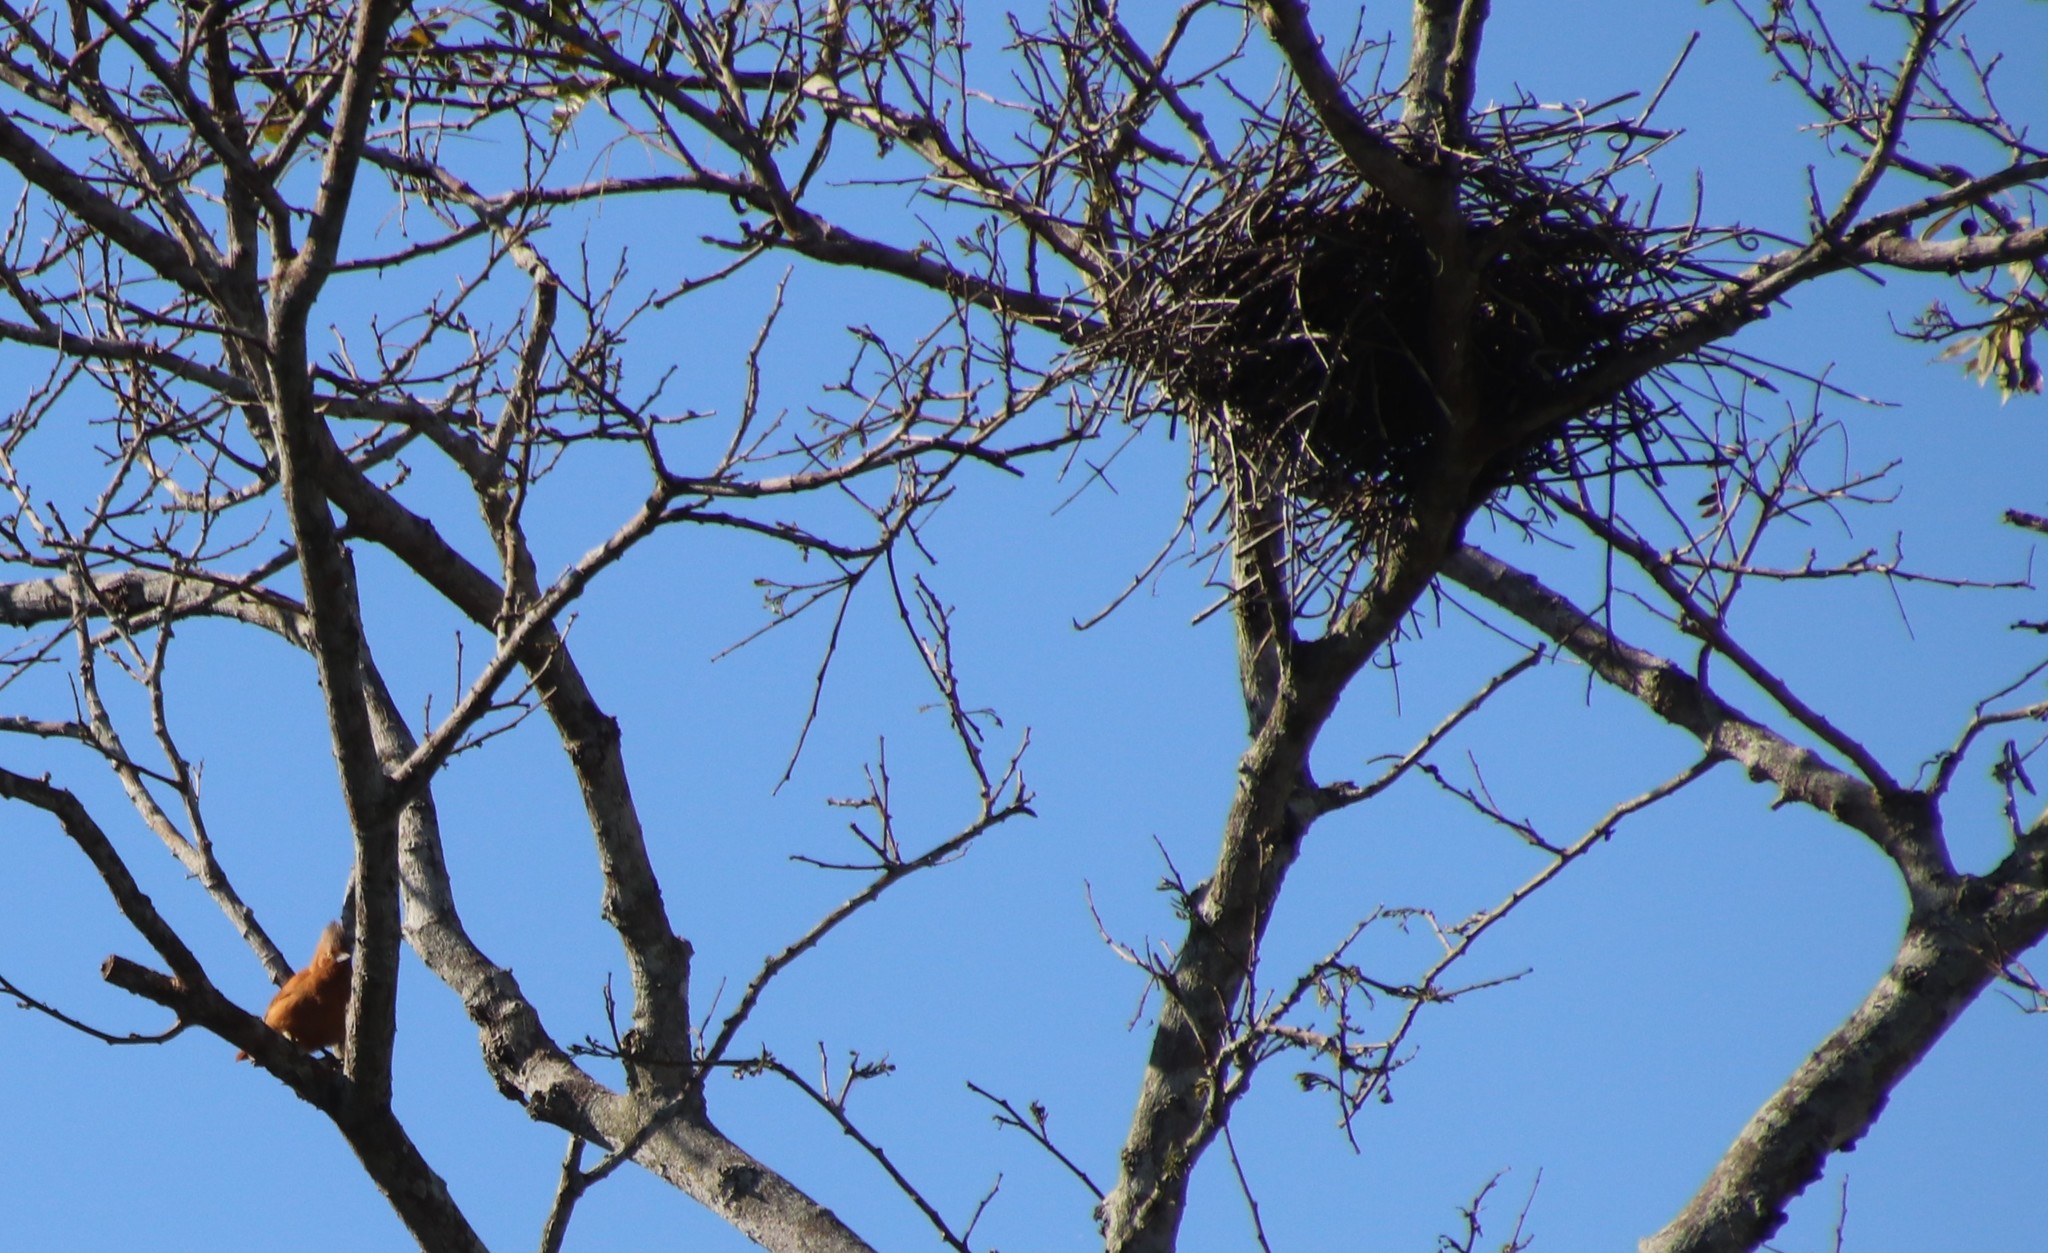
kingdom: Animalia
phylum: Chordata
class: Aves
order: Passeriformes
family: Furnariidae
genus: Pseudoseisura
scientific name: Pseudoseisura unirufa
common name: Grey-crested cacholote
